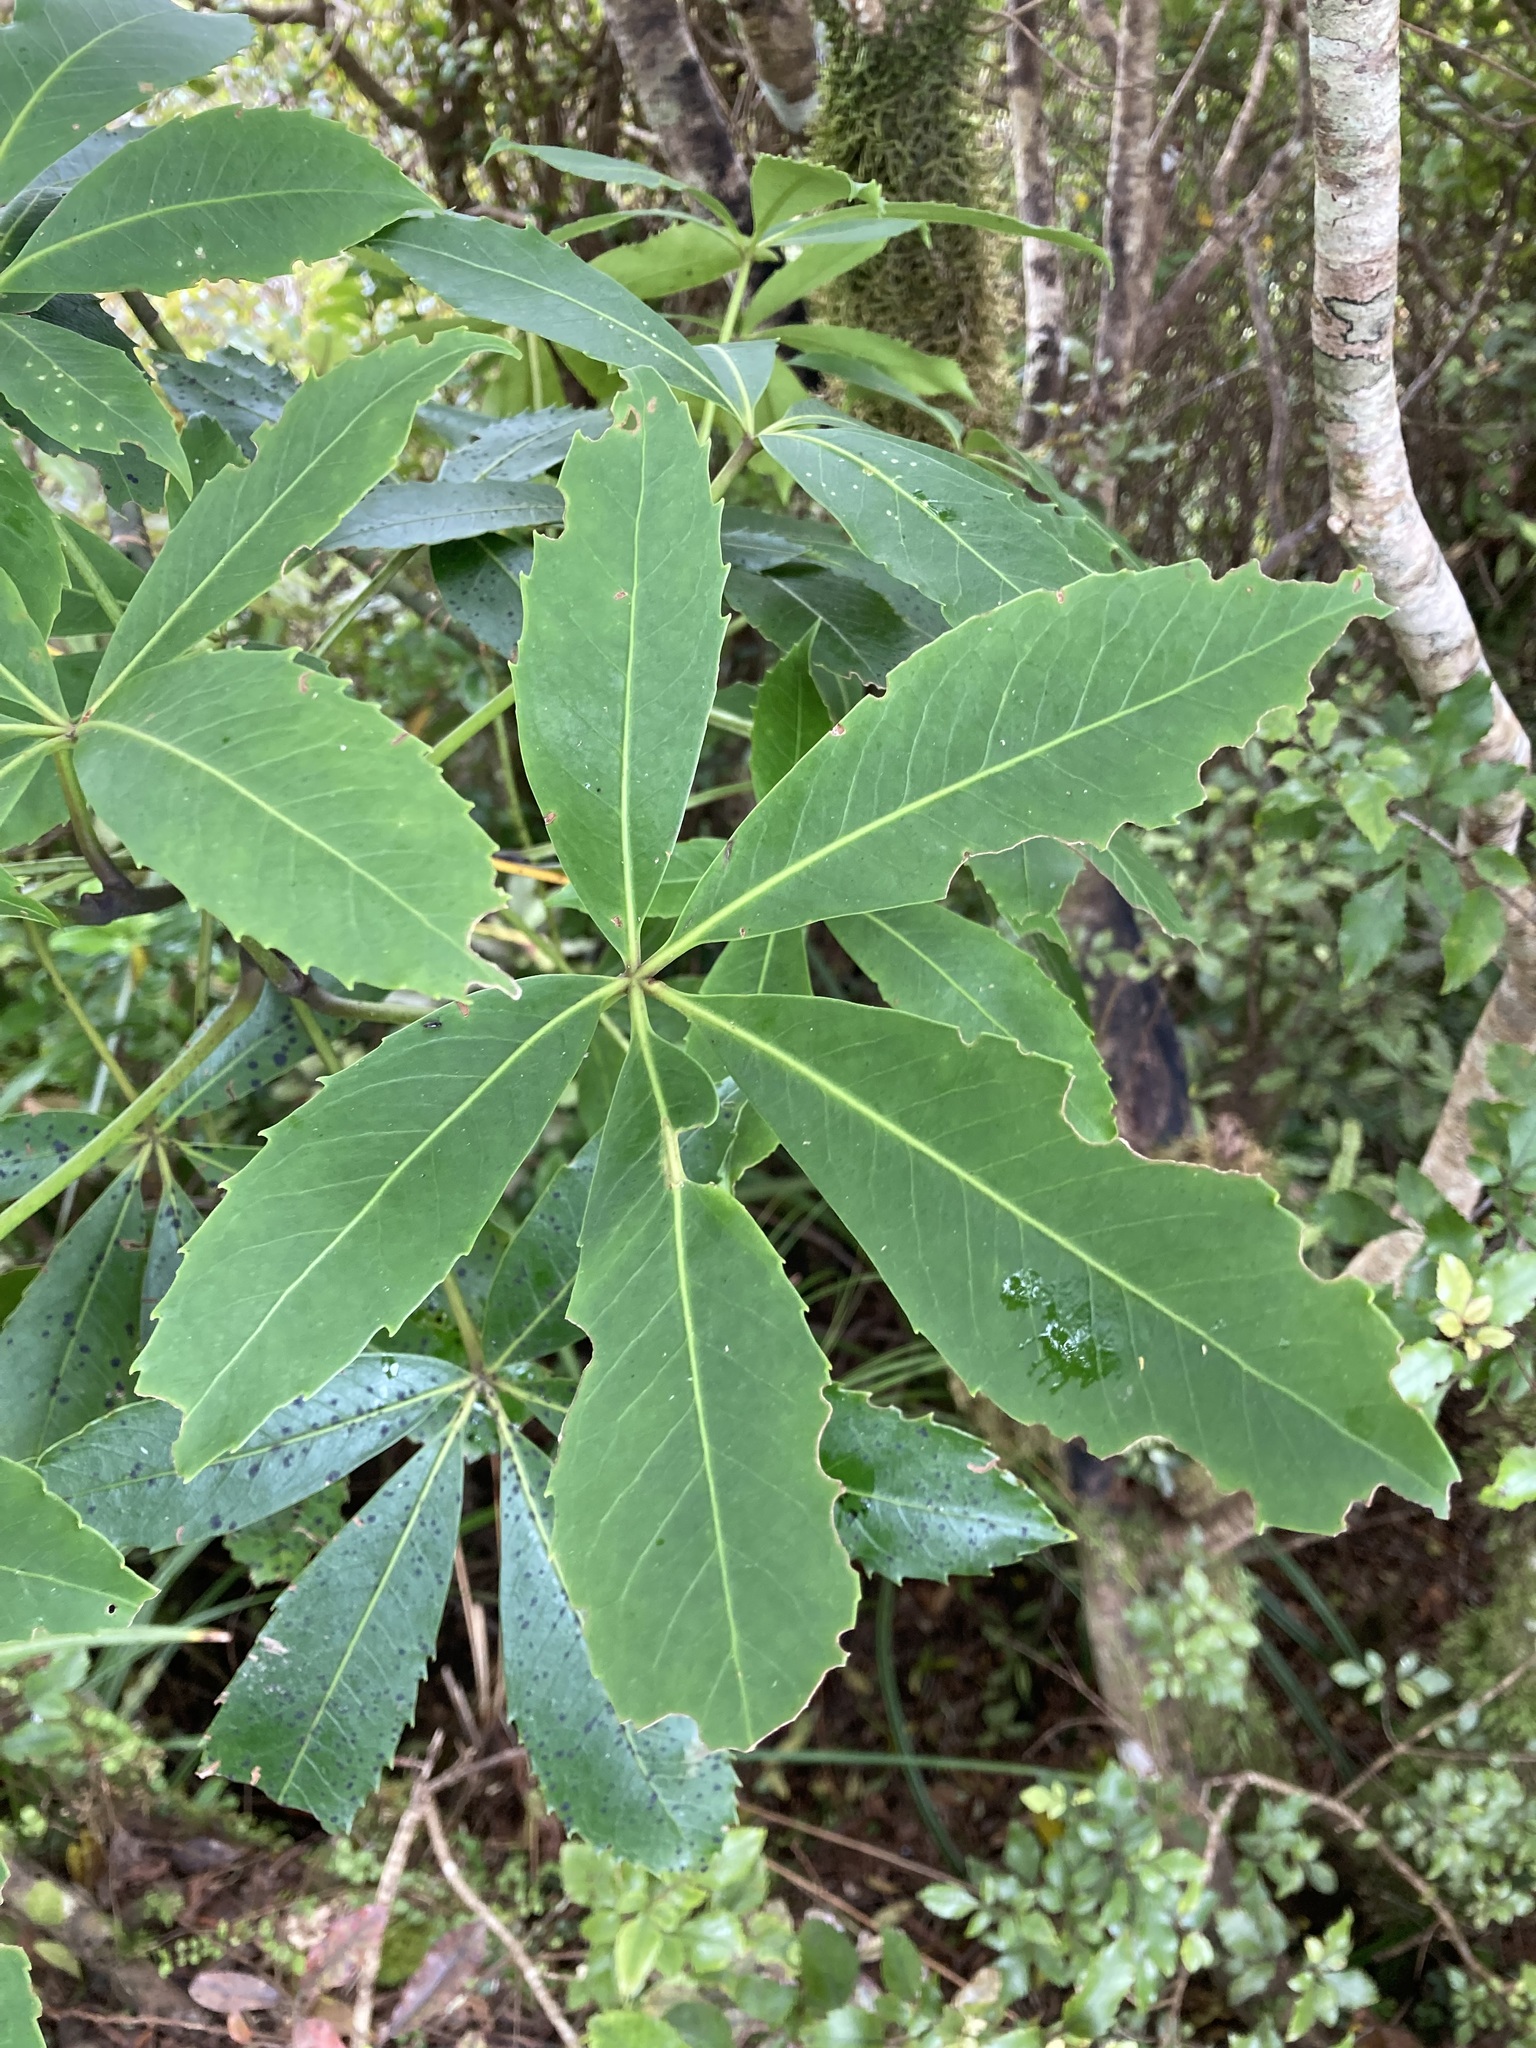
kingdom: Plantae
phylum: Tracheophyta
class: Magnoliopsida
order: Apiales
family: Araliaceae
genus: Neopanax
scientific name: Neopanax colensoi
